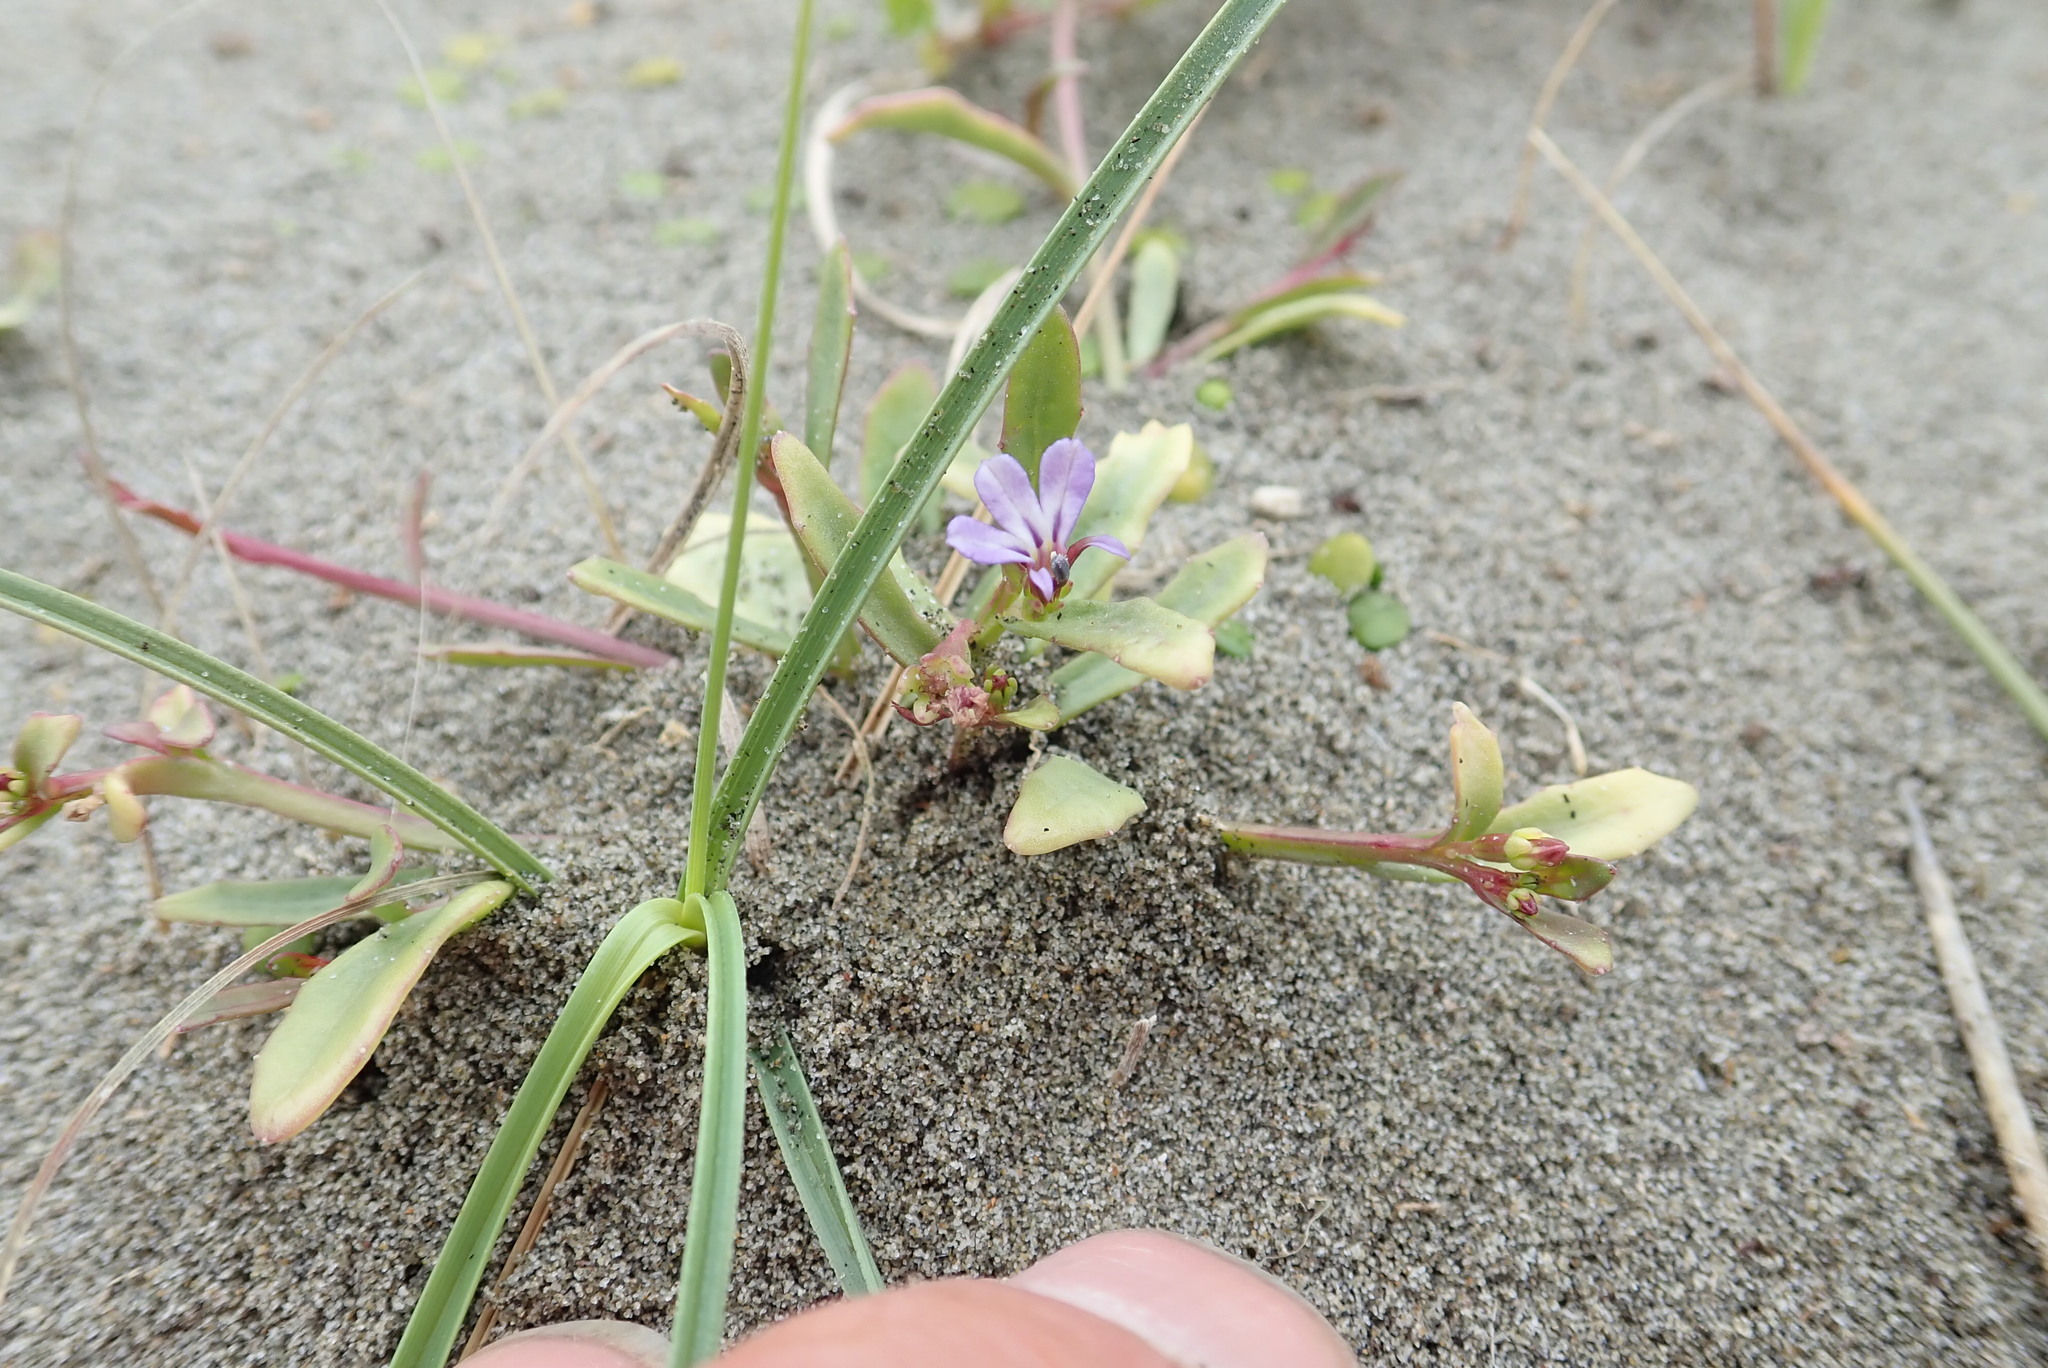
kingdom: Plantae
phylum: Tracheophyta
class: Magnoliopsida
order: Asterales
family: Campanulaceae
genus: Lobelia
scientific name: Lobelia anceps
